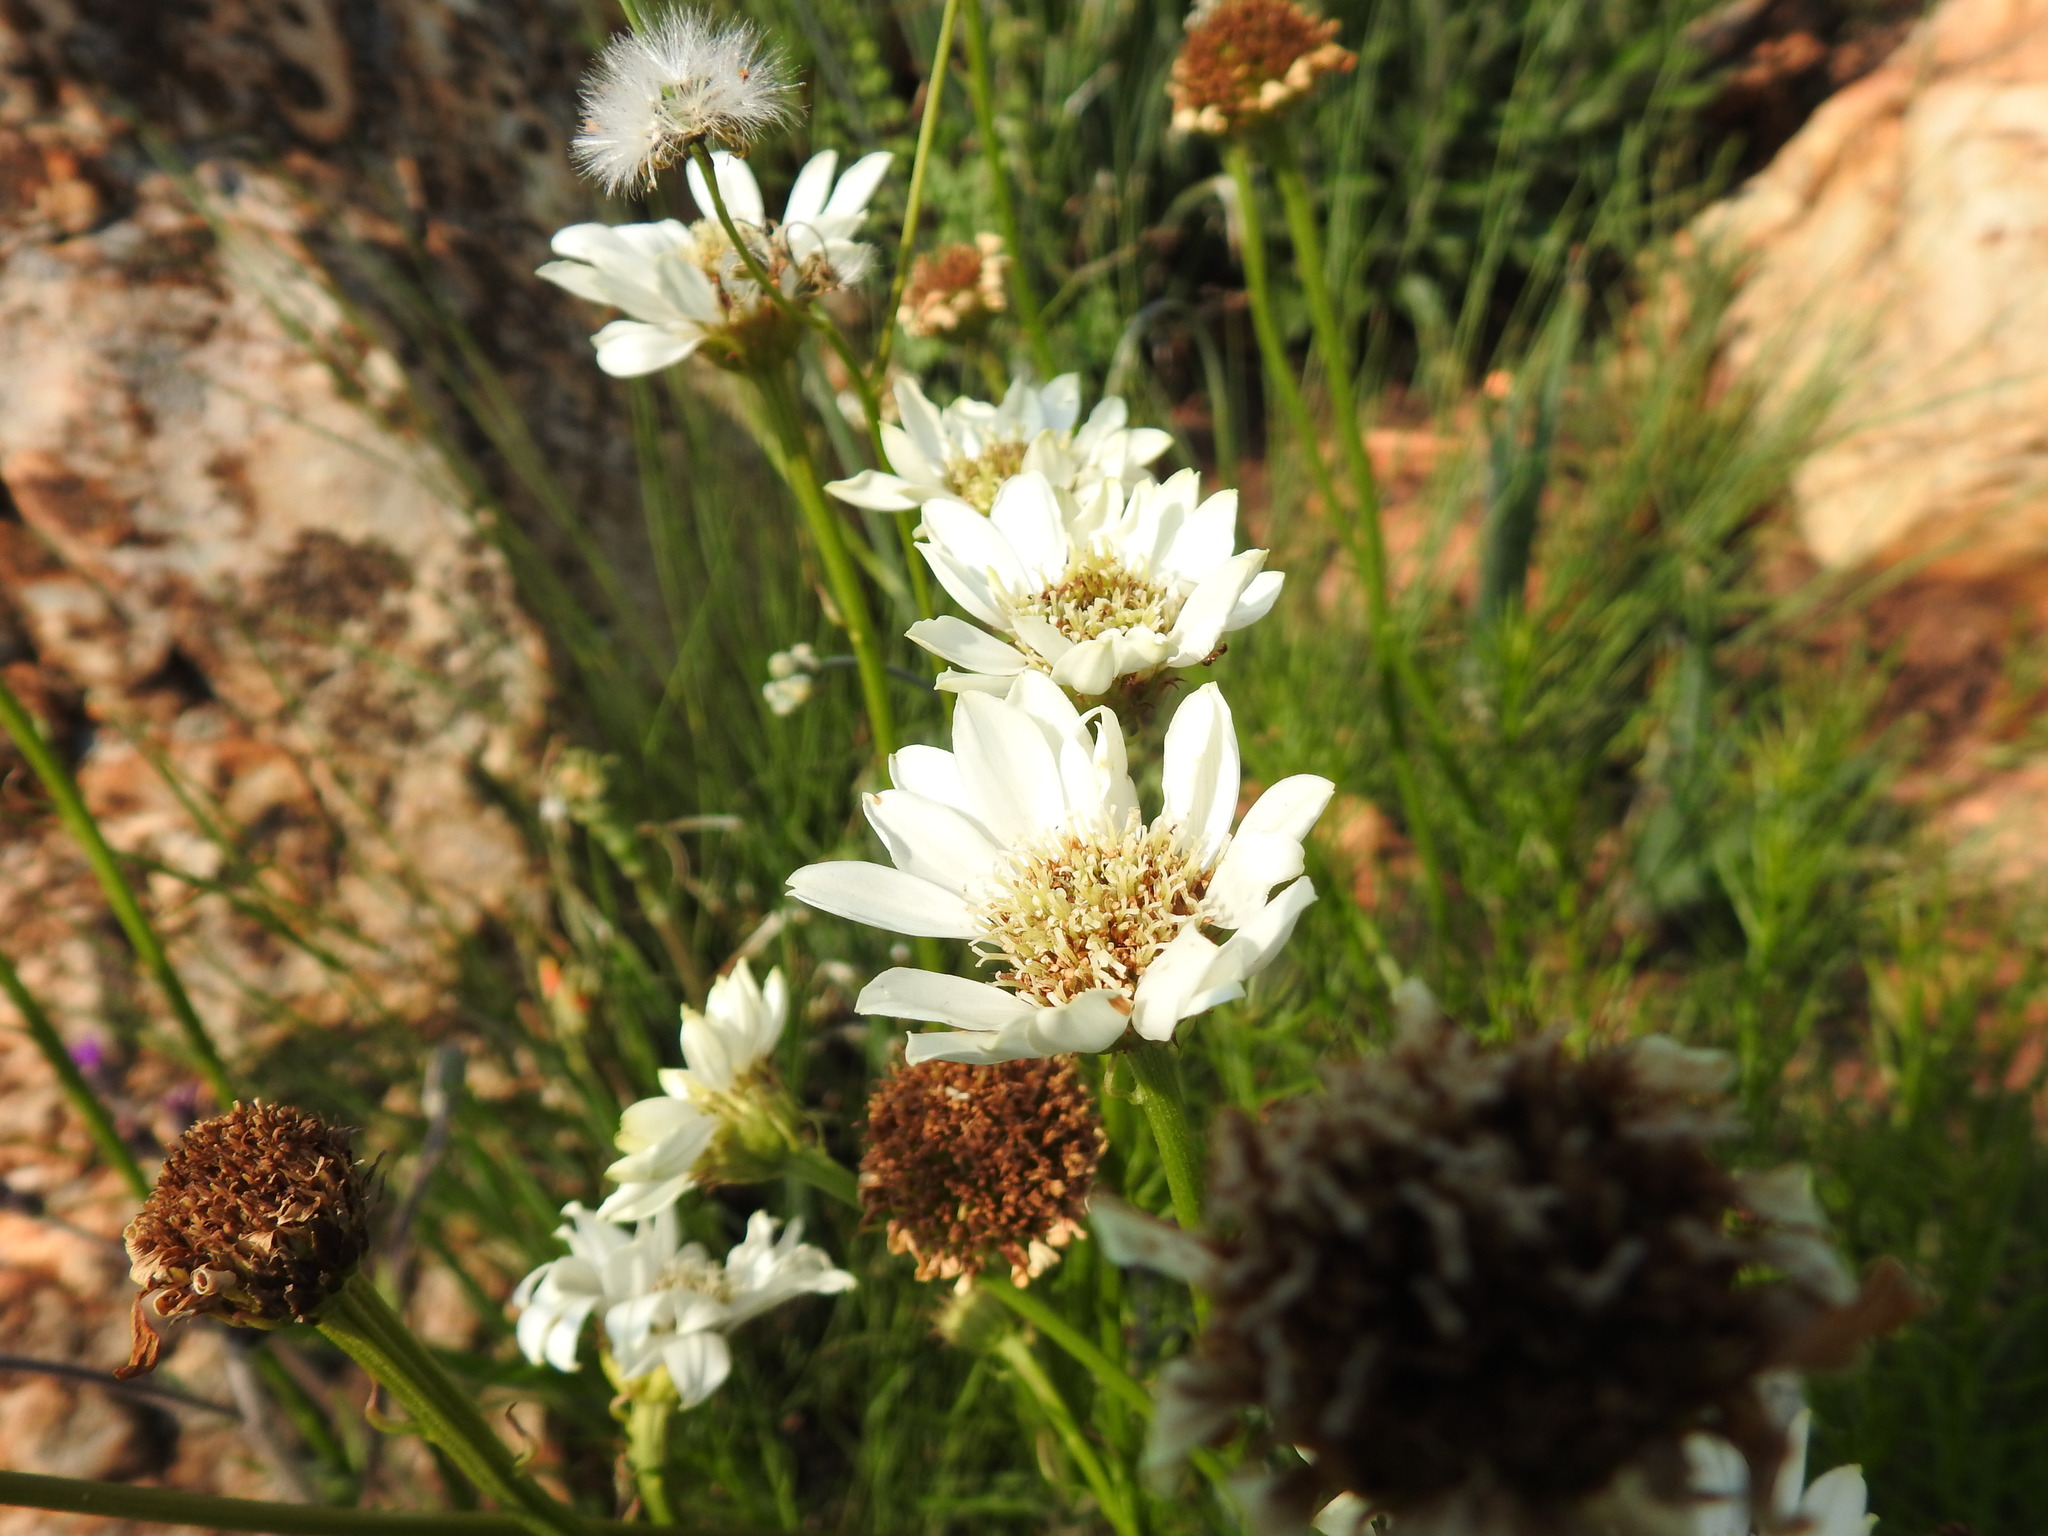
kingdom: Plantae
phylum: Tracheophyta
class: Magnoliopsida
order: Asterales
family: Asteraceae
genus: Callilepis
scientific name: Callilepis leptophylla
